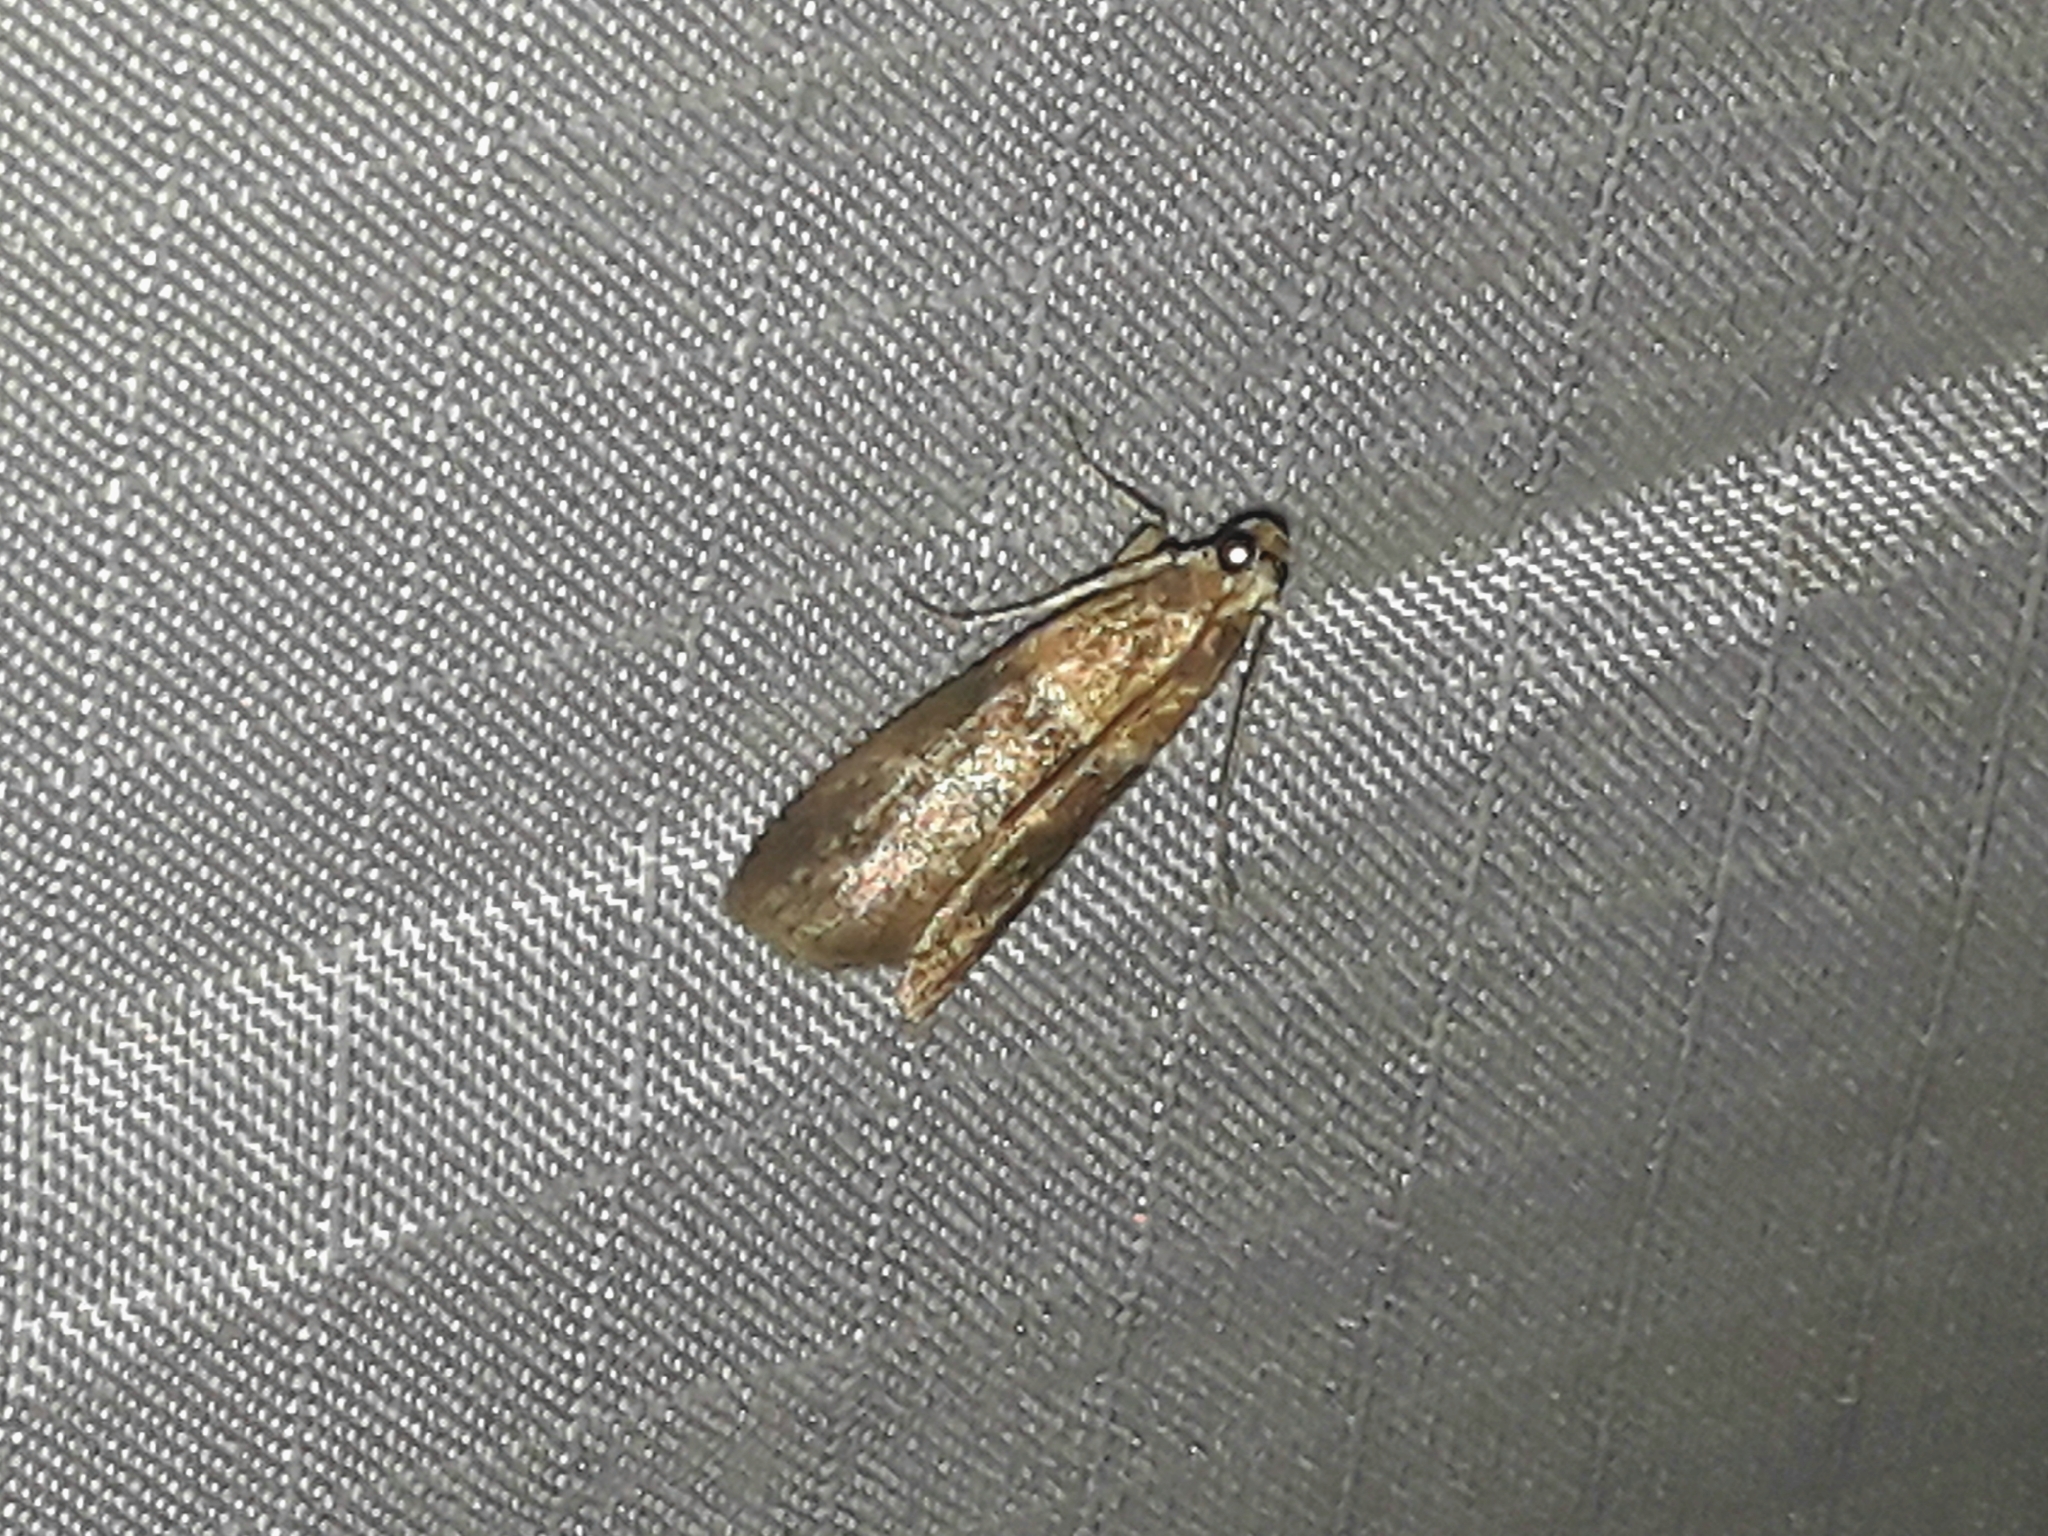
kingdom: Animalia
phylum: Arthropoda
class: Insecta
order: Lepidoptera
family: Pyralidae
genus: Acrobasis
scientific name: Acrobasis repandana
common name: Warted knot-horn
